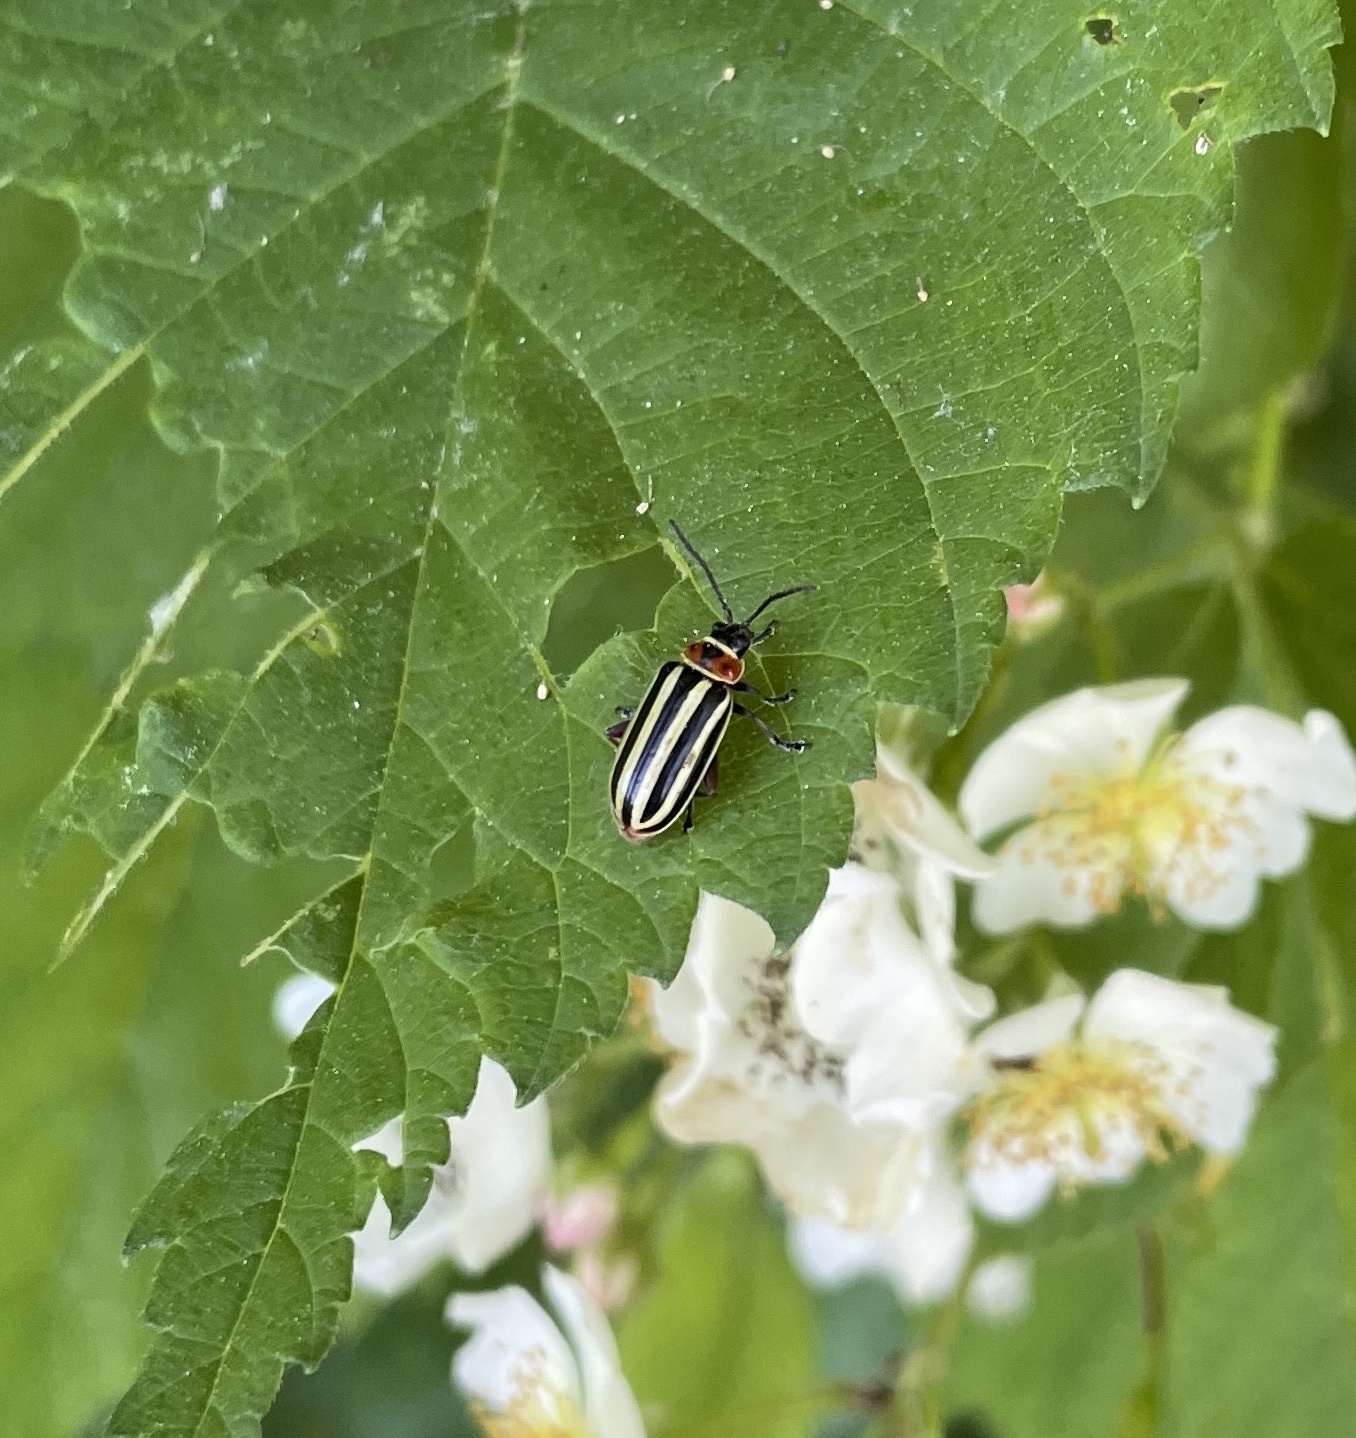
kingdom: Animalia
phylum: Arthropoda
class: Insecta
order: Coleoptera
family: Chrysomelidae
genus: Disonycha
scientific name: Disonycha procera
